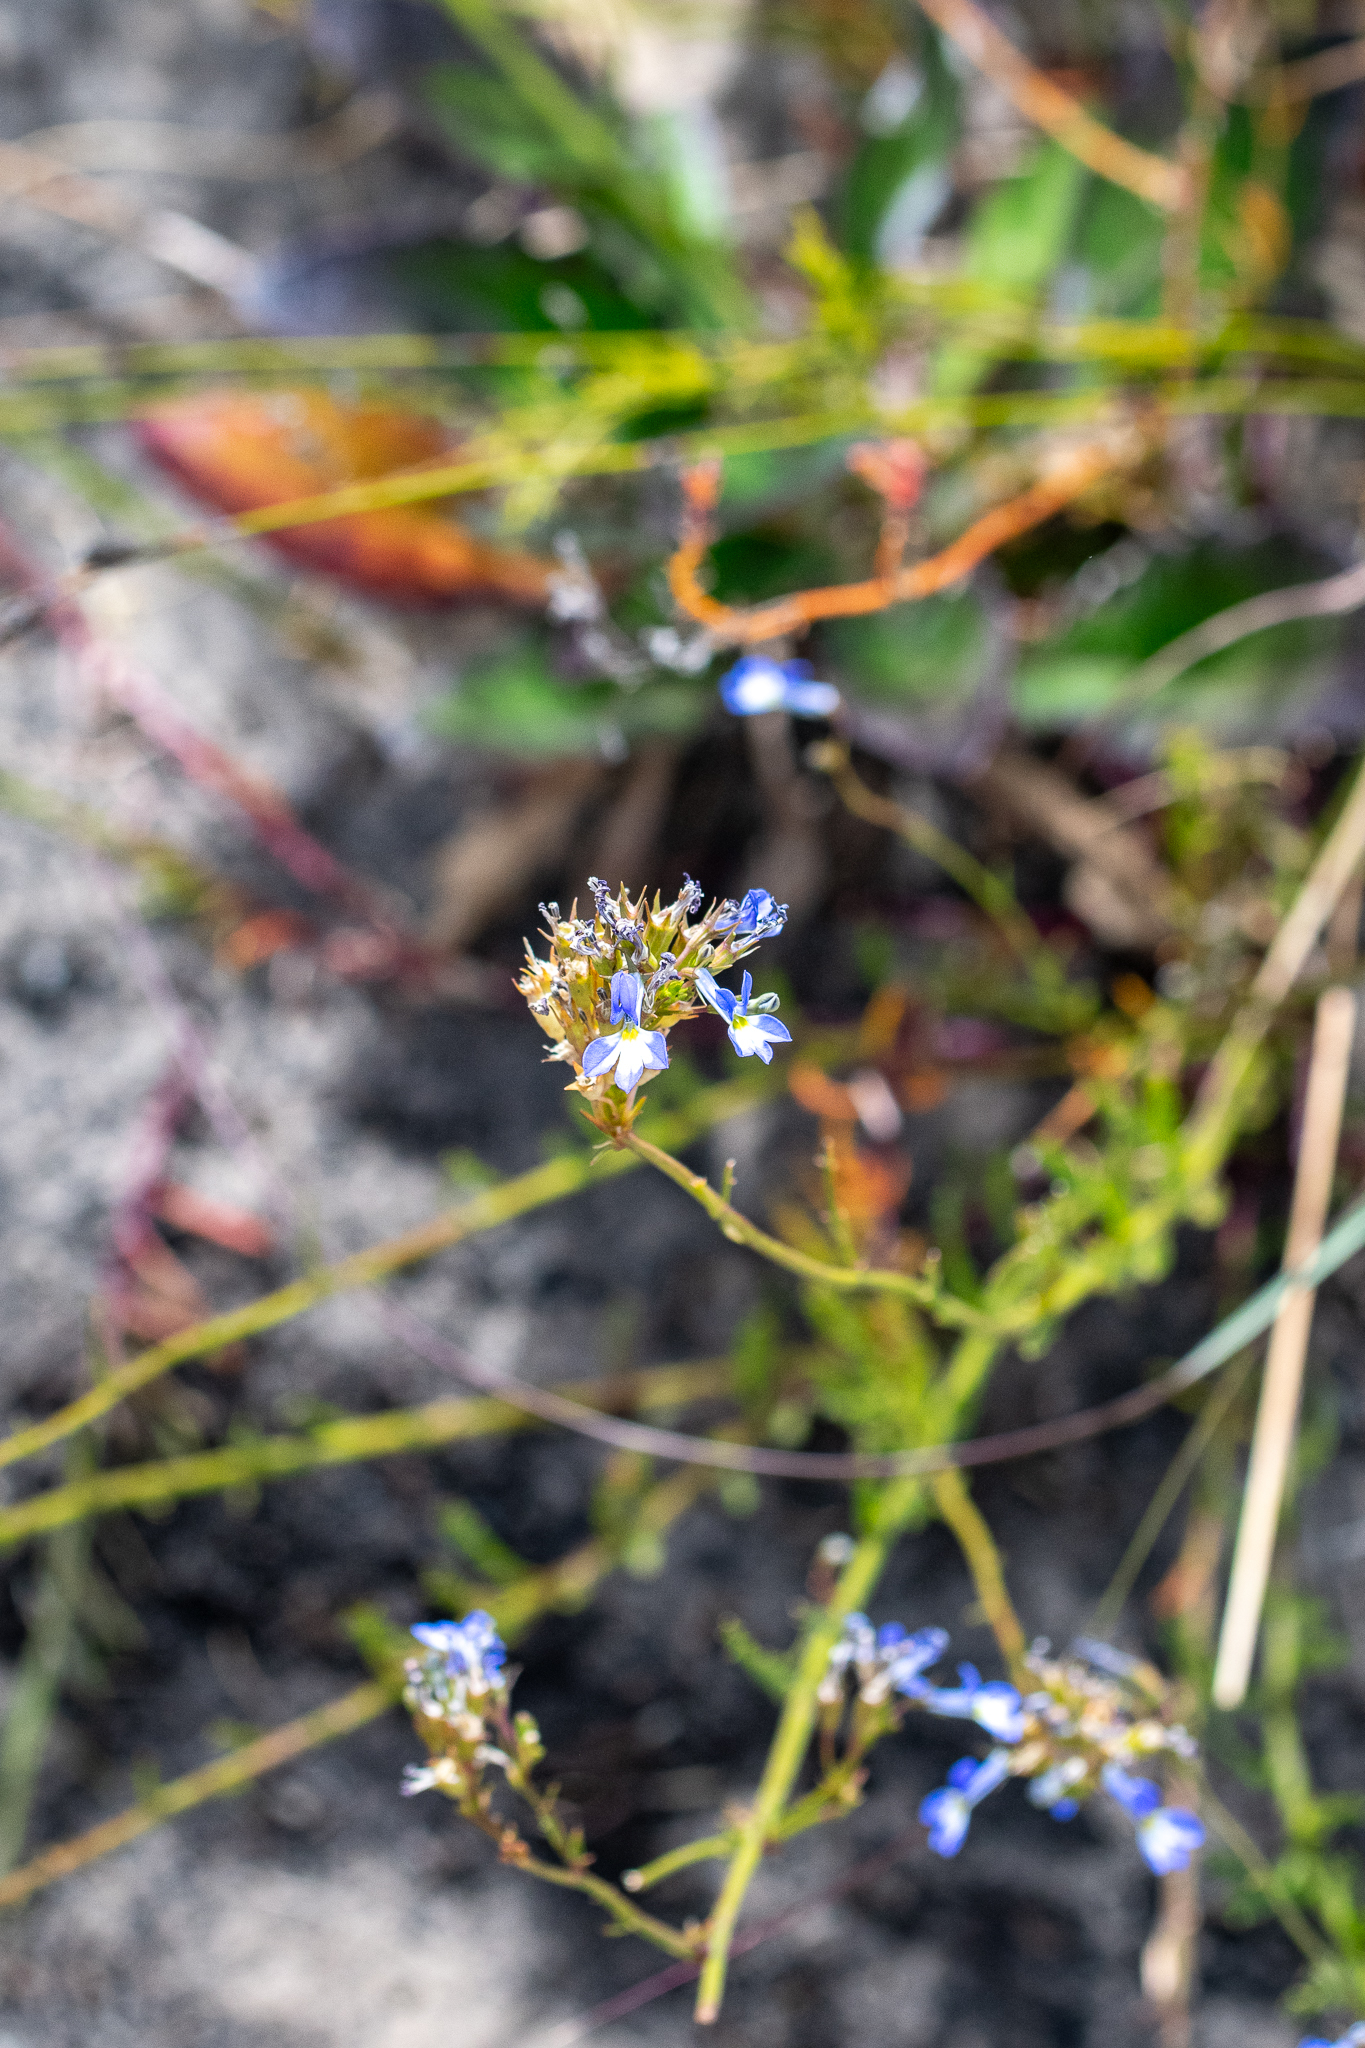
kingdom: Plantae
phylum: Tracheophyta
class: Magnoliopsida
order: Asterales
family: Campanulaceae
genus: Lobelia
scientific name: Lobelia comosa
